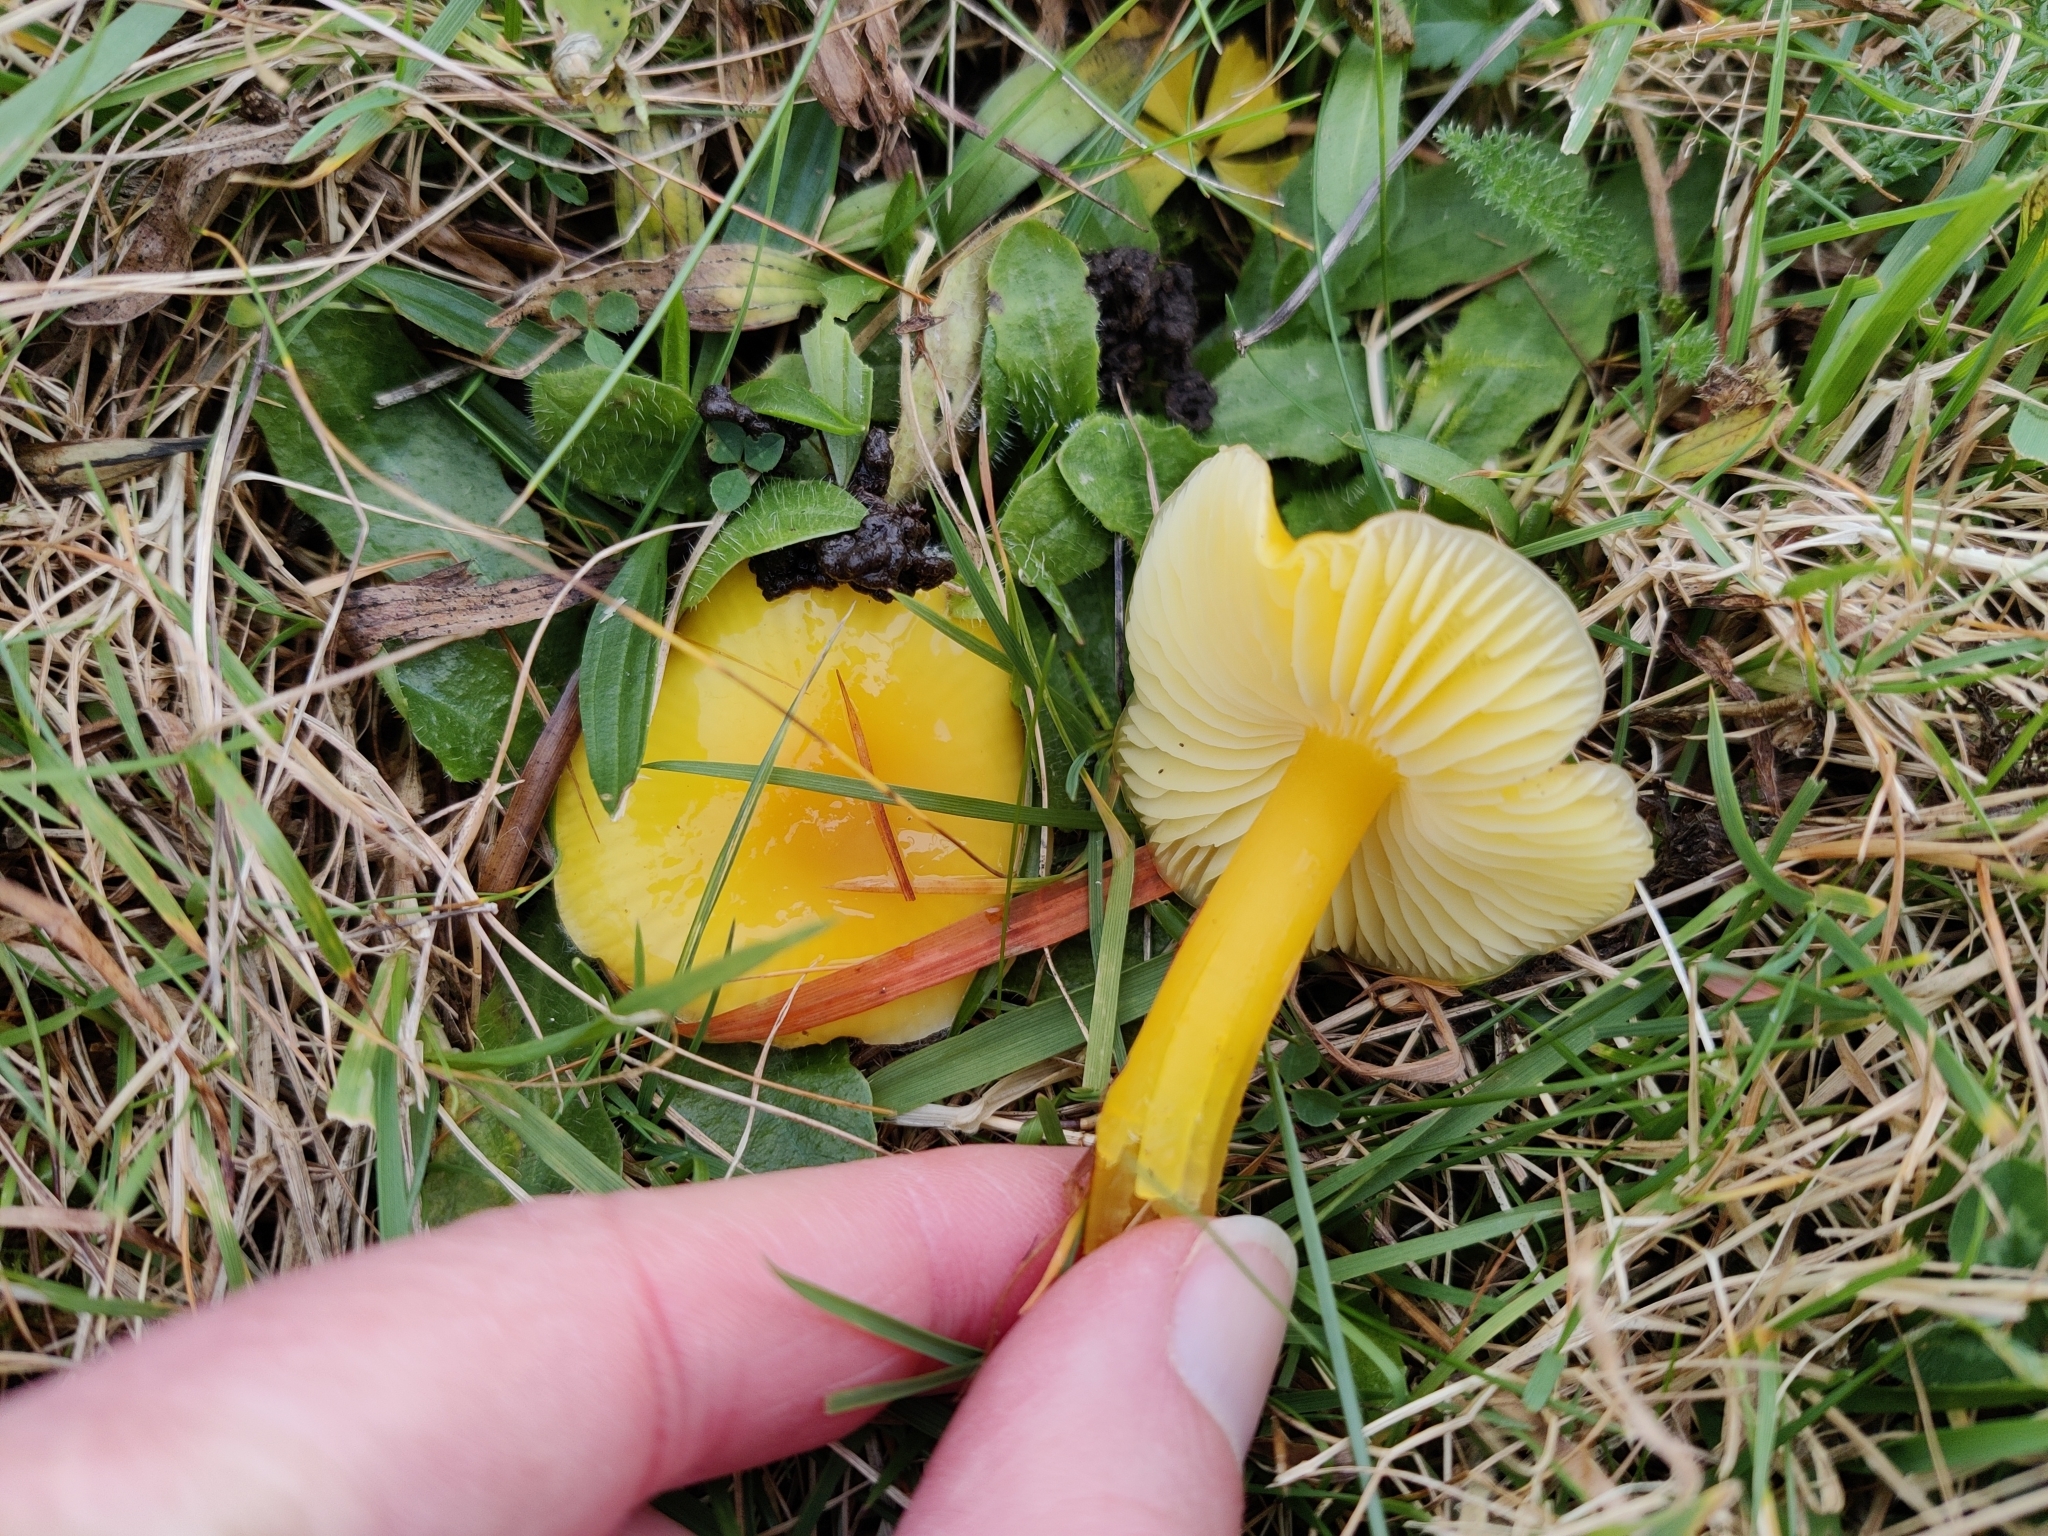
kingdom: Fungi
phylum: Basidiomycota
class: Agaricomycetes
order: Agaricales
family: Hygrophoraceae
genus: Hygrocybe
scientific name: Hygrocybe chlorophana
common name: Golden waxcap
